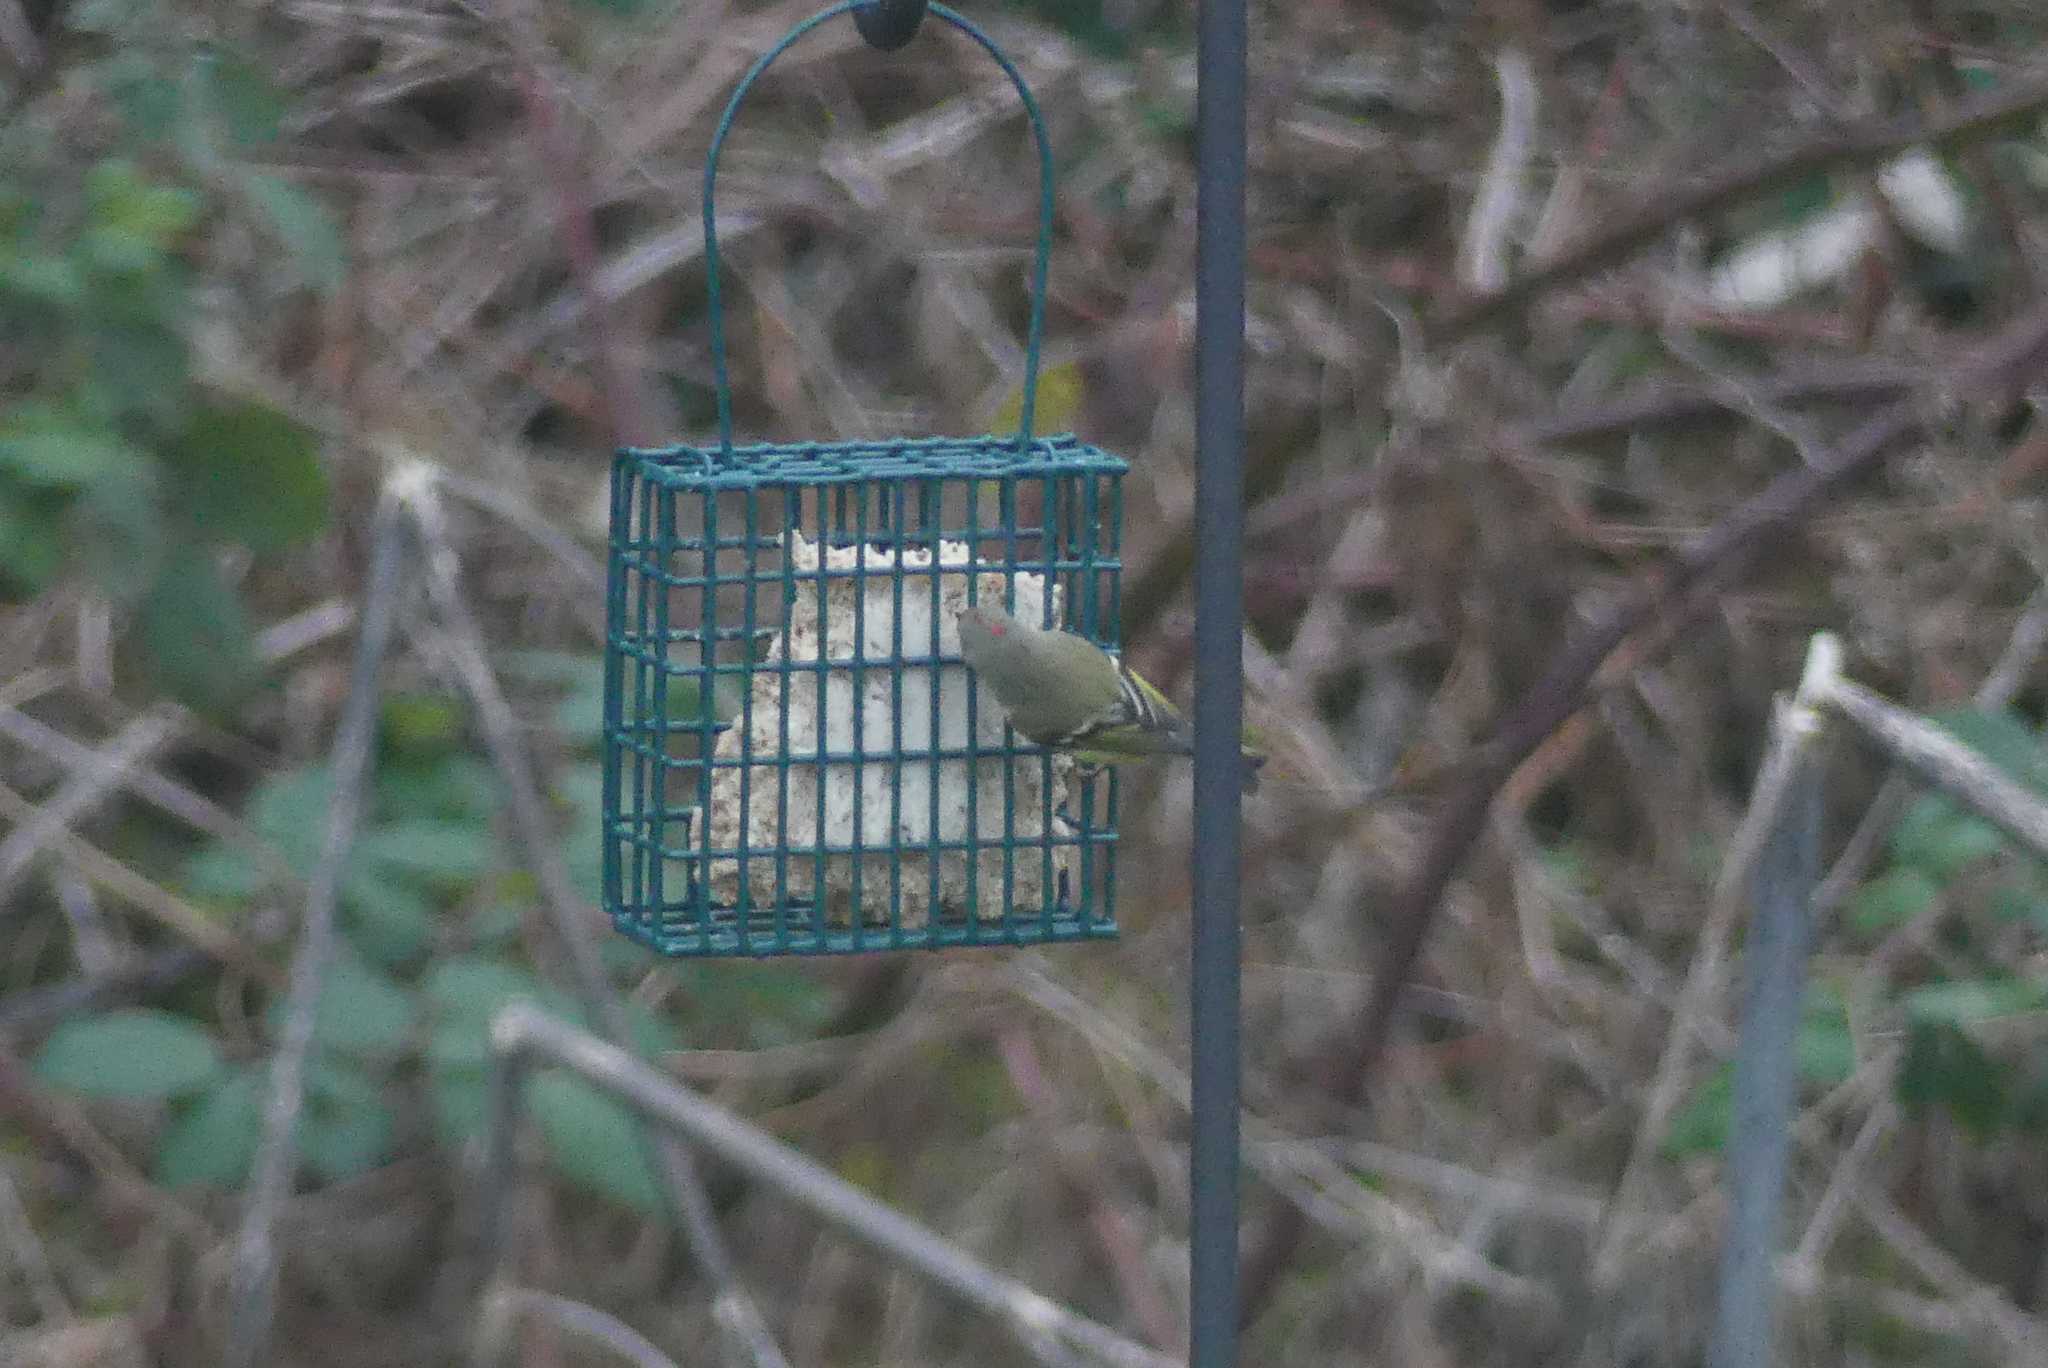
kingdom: Animalia
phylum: Chordata
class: Aves
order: Passeriformes
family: Regulidae
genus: Regulus
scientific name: Regulus calendula
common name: Ruby-crowned kinglet
